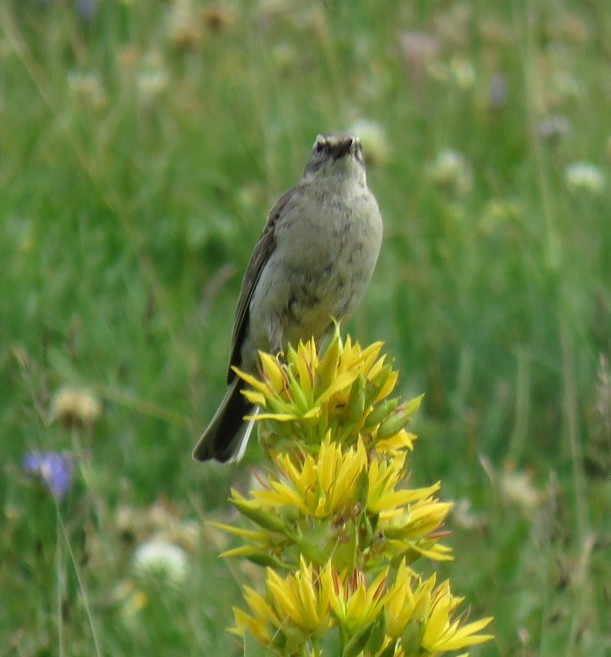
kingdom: Animalia
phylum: Chordata
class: Aves
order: Passeriformes
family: Motacillidae
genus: Anthus
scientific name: Anthus spinoletta
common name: Water pipit
